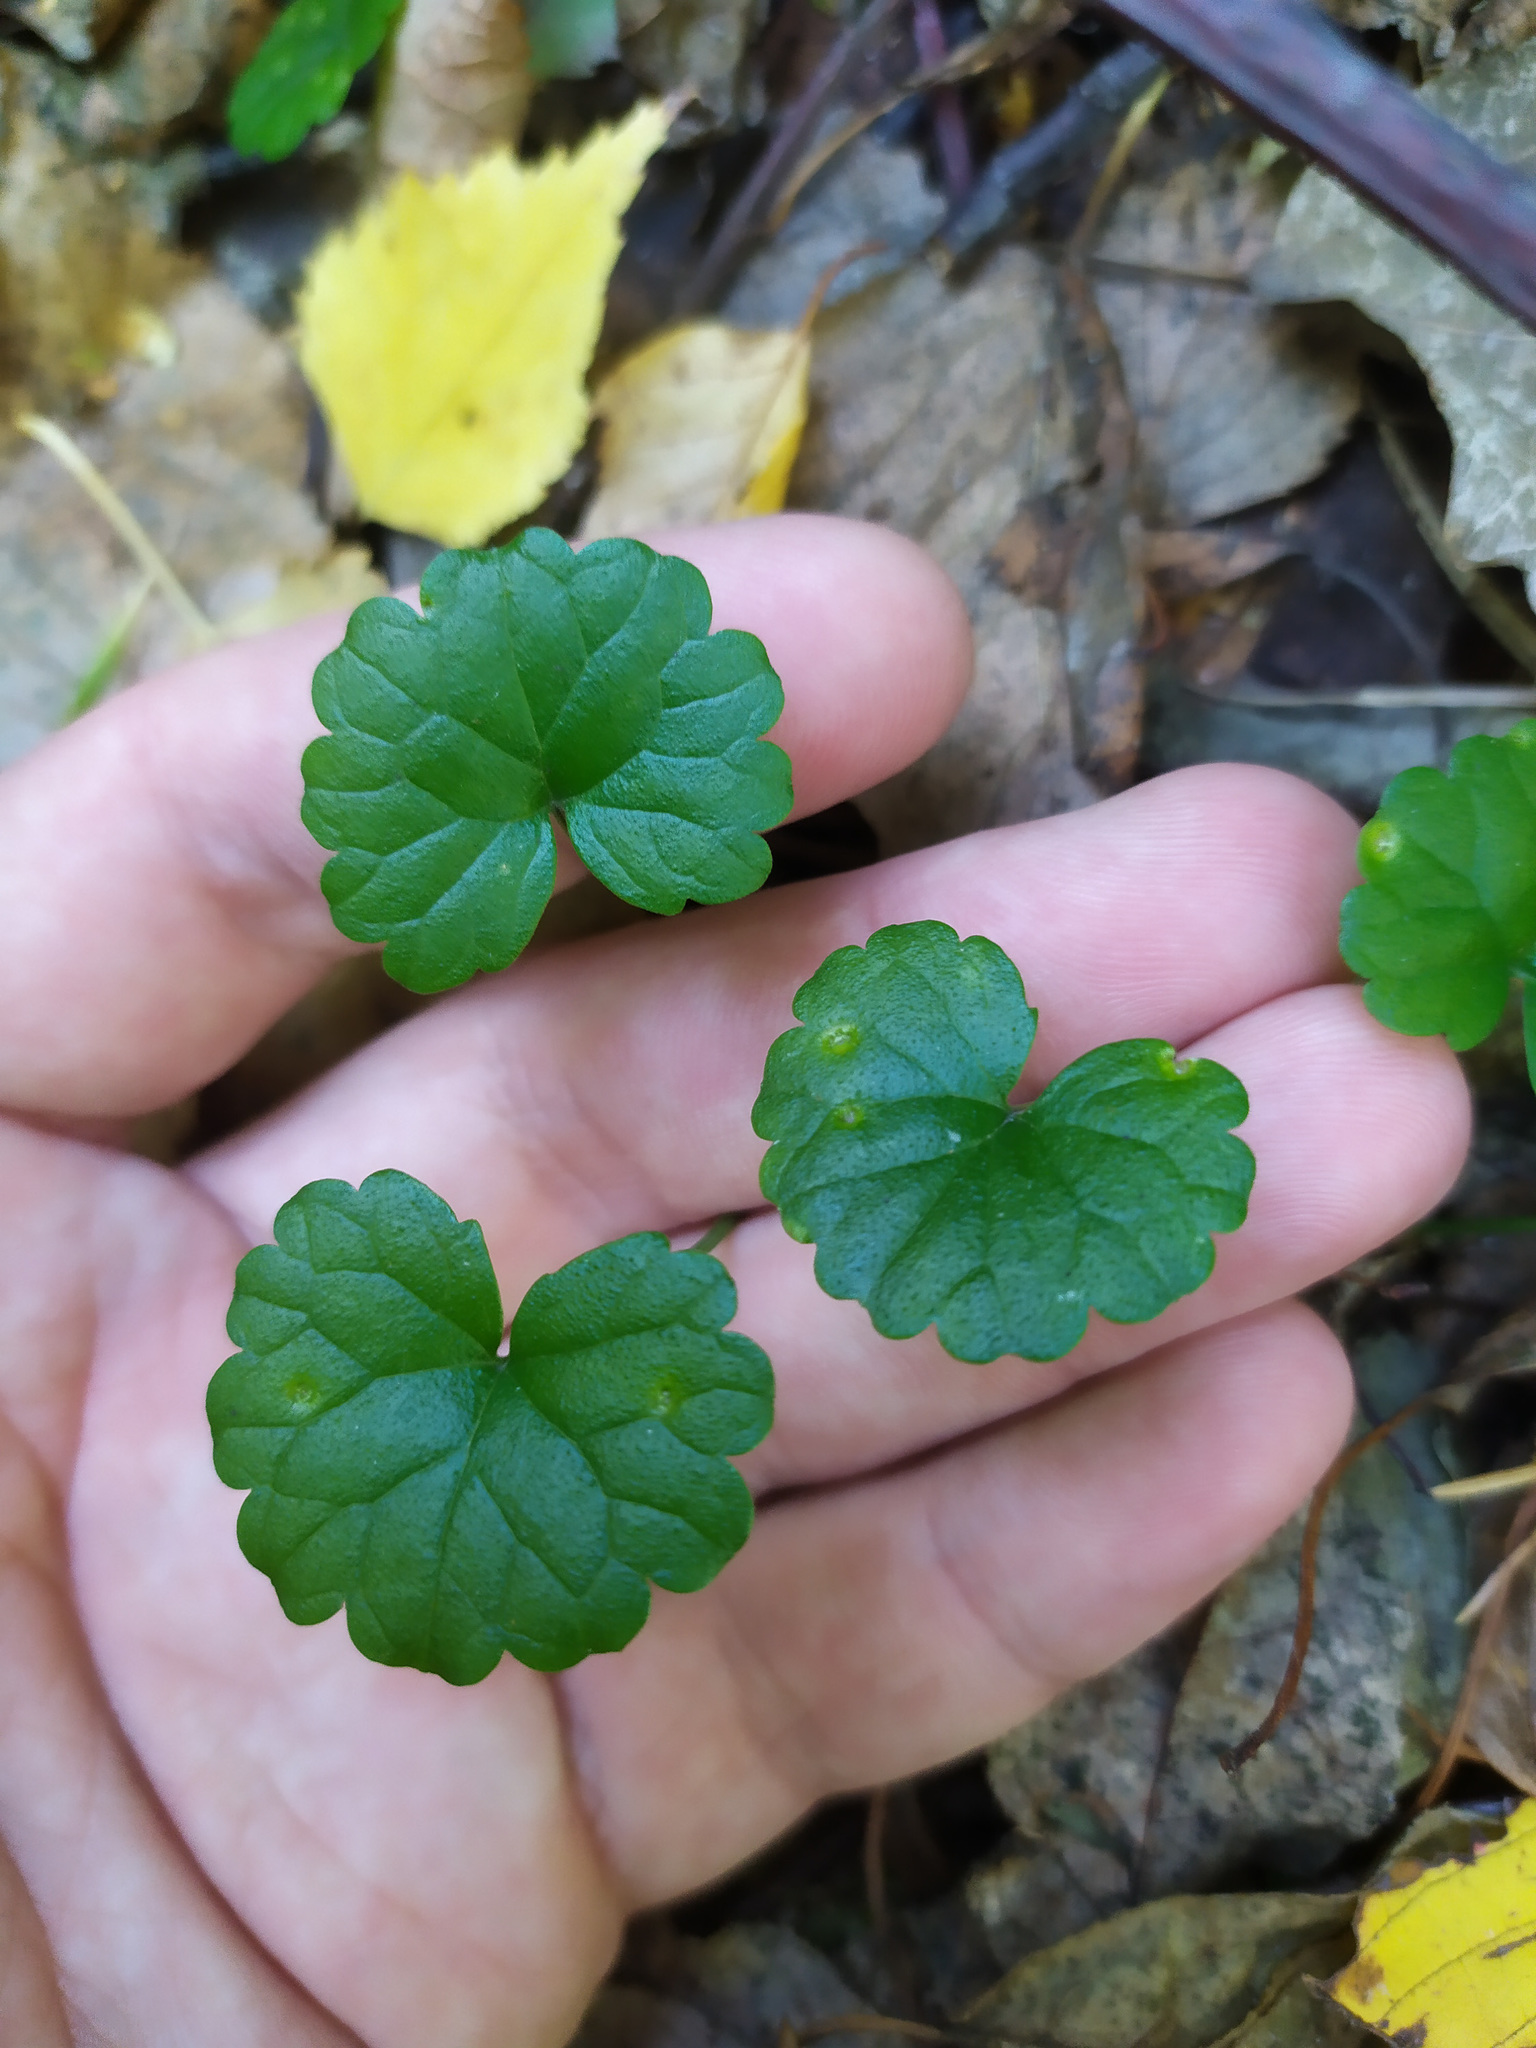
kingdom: Plantae
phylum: Tracheophyta
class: Magnoliopsida
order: Lamiales
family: Lamiaceae
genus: Glechoma
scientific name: Glechoma hederacea
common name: Ground ivy
